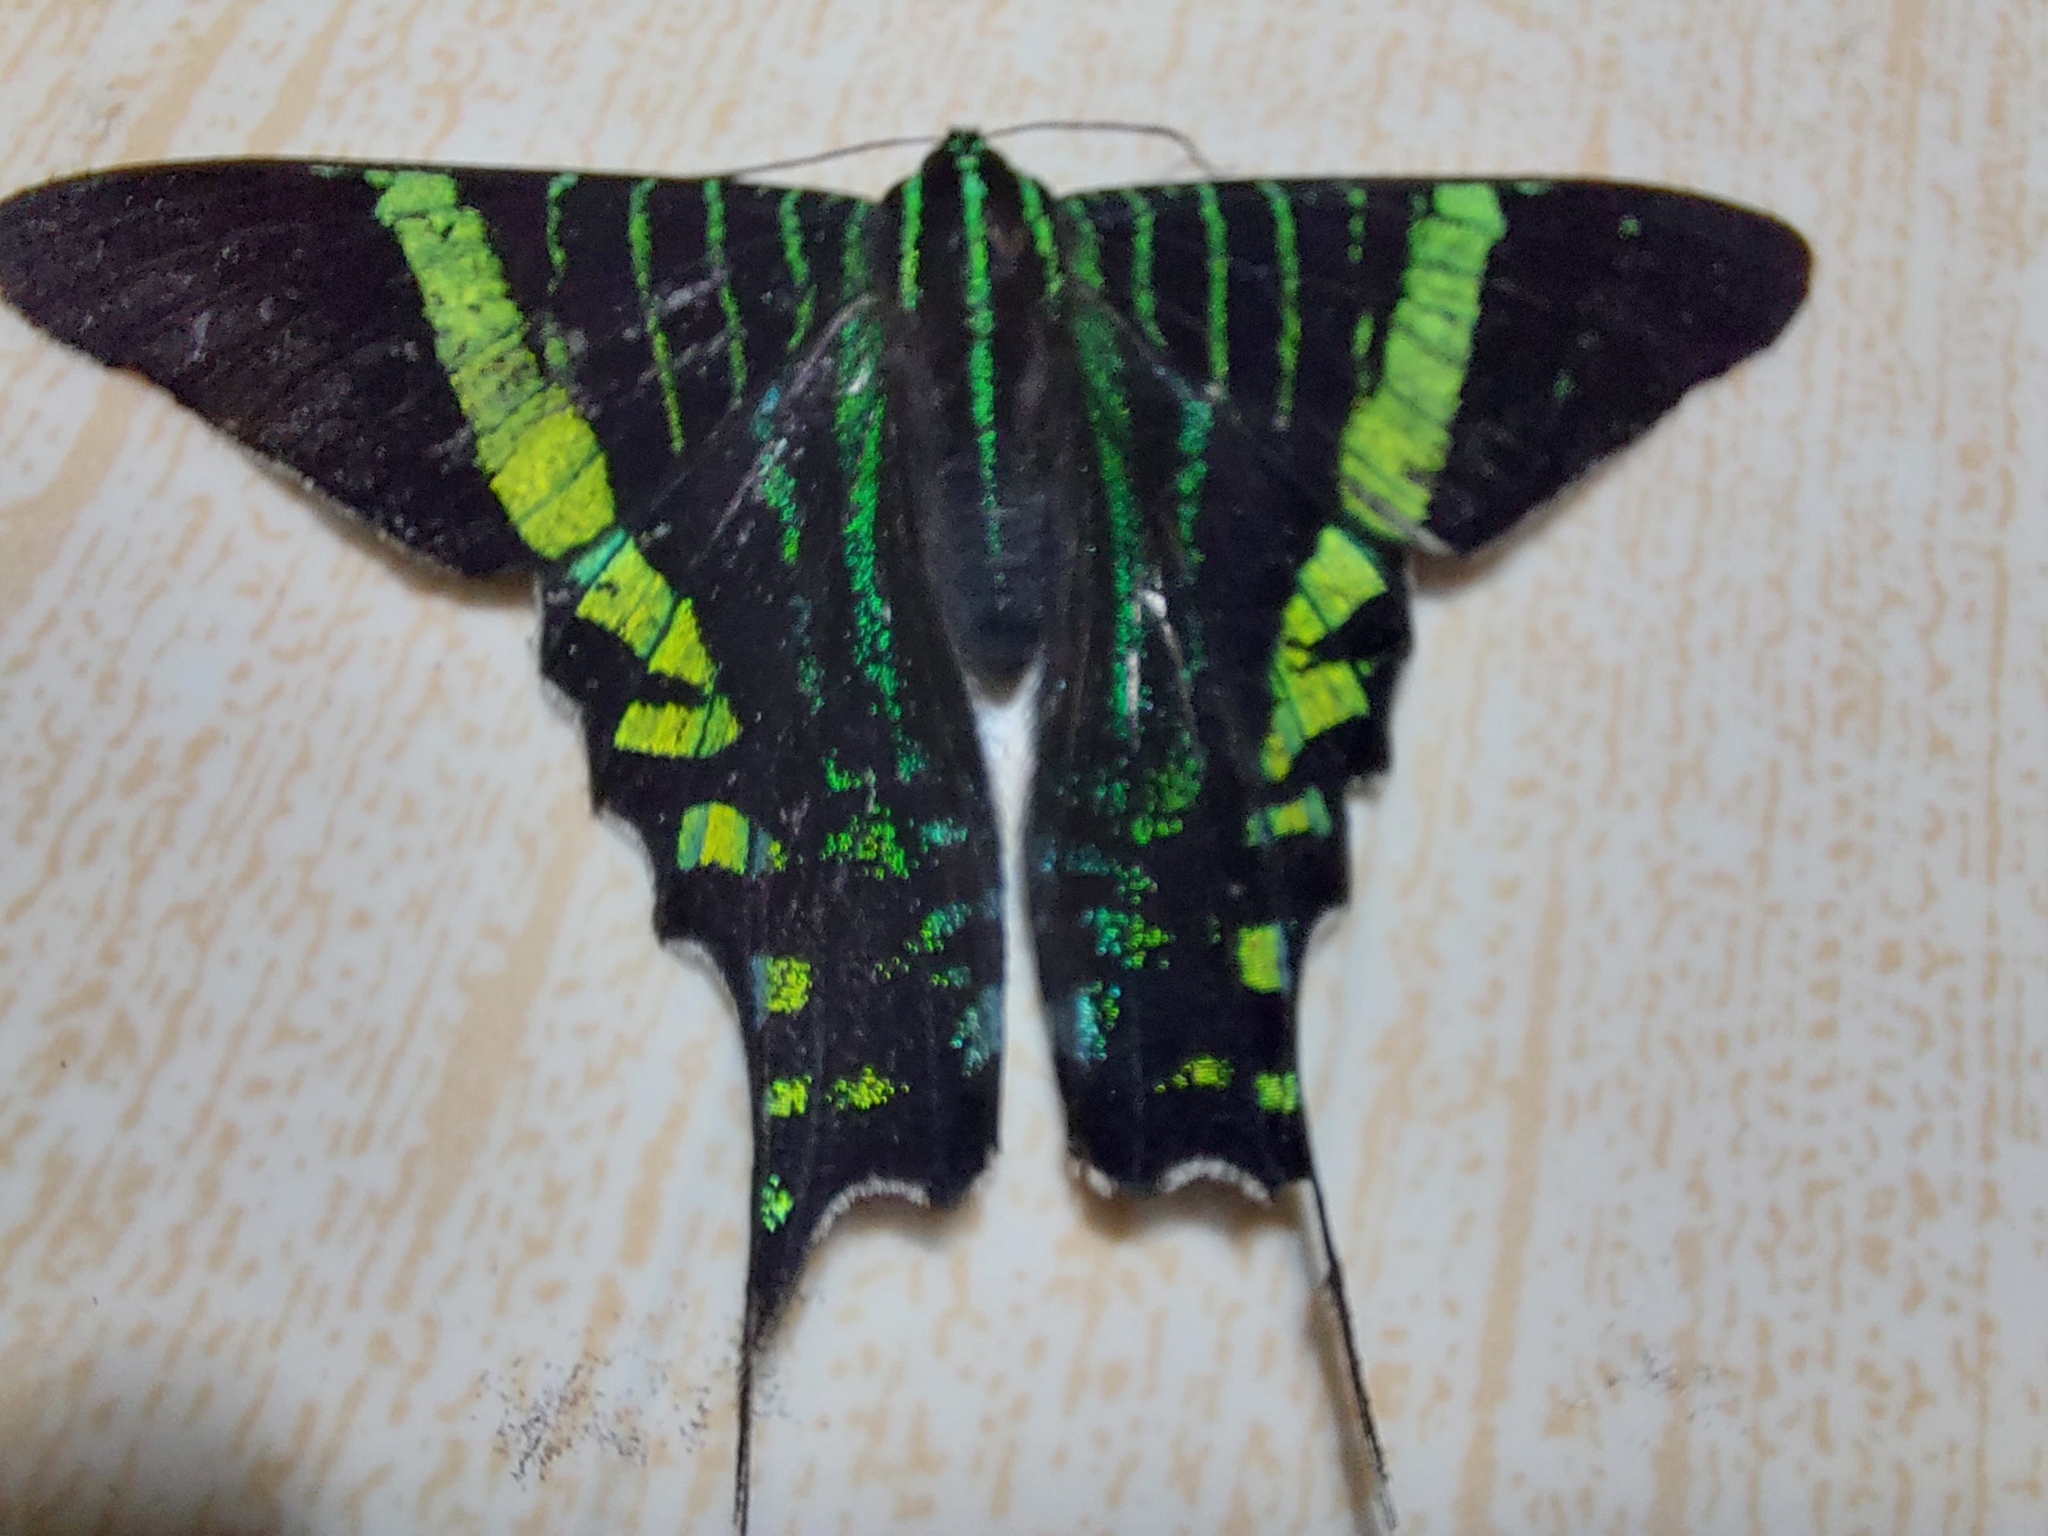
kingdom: Animalia
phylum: Arthropoda
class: Insecta
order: Lepidoptera
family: Uraniidae
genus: Urania
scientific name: Urania fulgens
